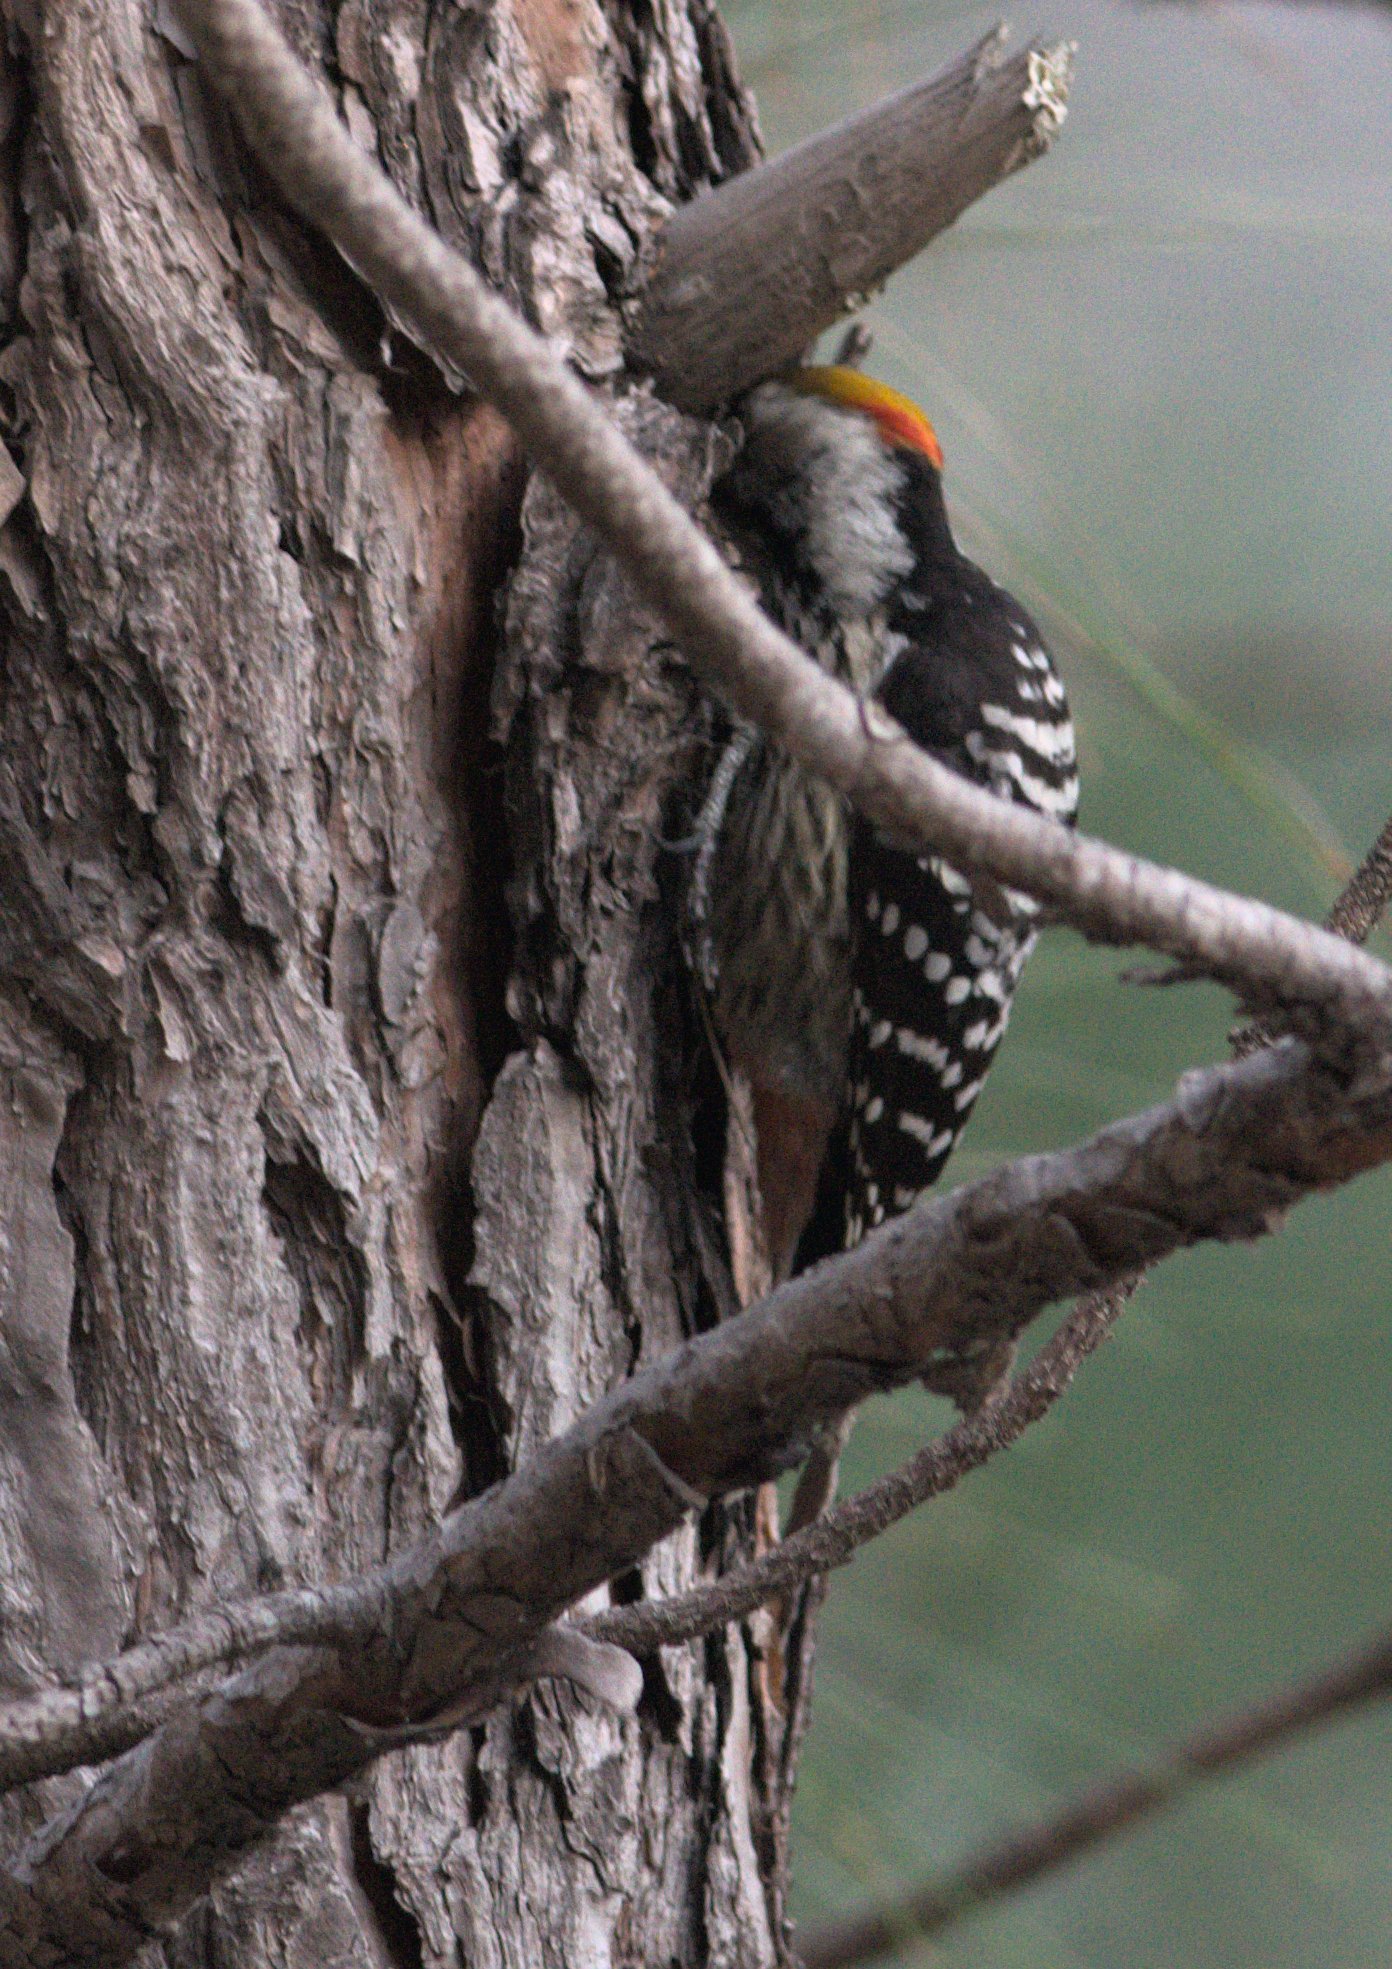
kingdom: Animalia
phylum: Chordata
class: Aves
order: Piciformes
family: Picidae
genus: Dendrocoptes
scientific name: Dendrocoptes auriceps
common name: Brown-fronted woodpecker
